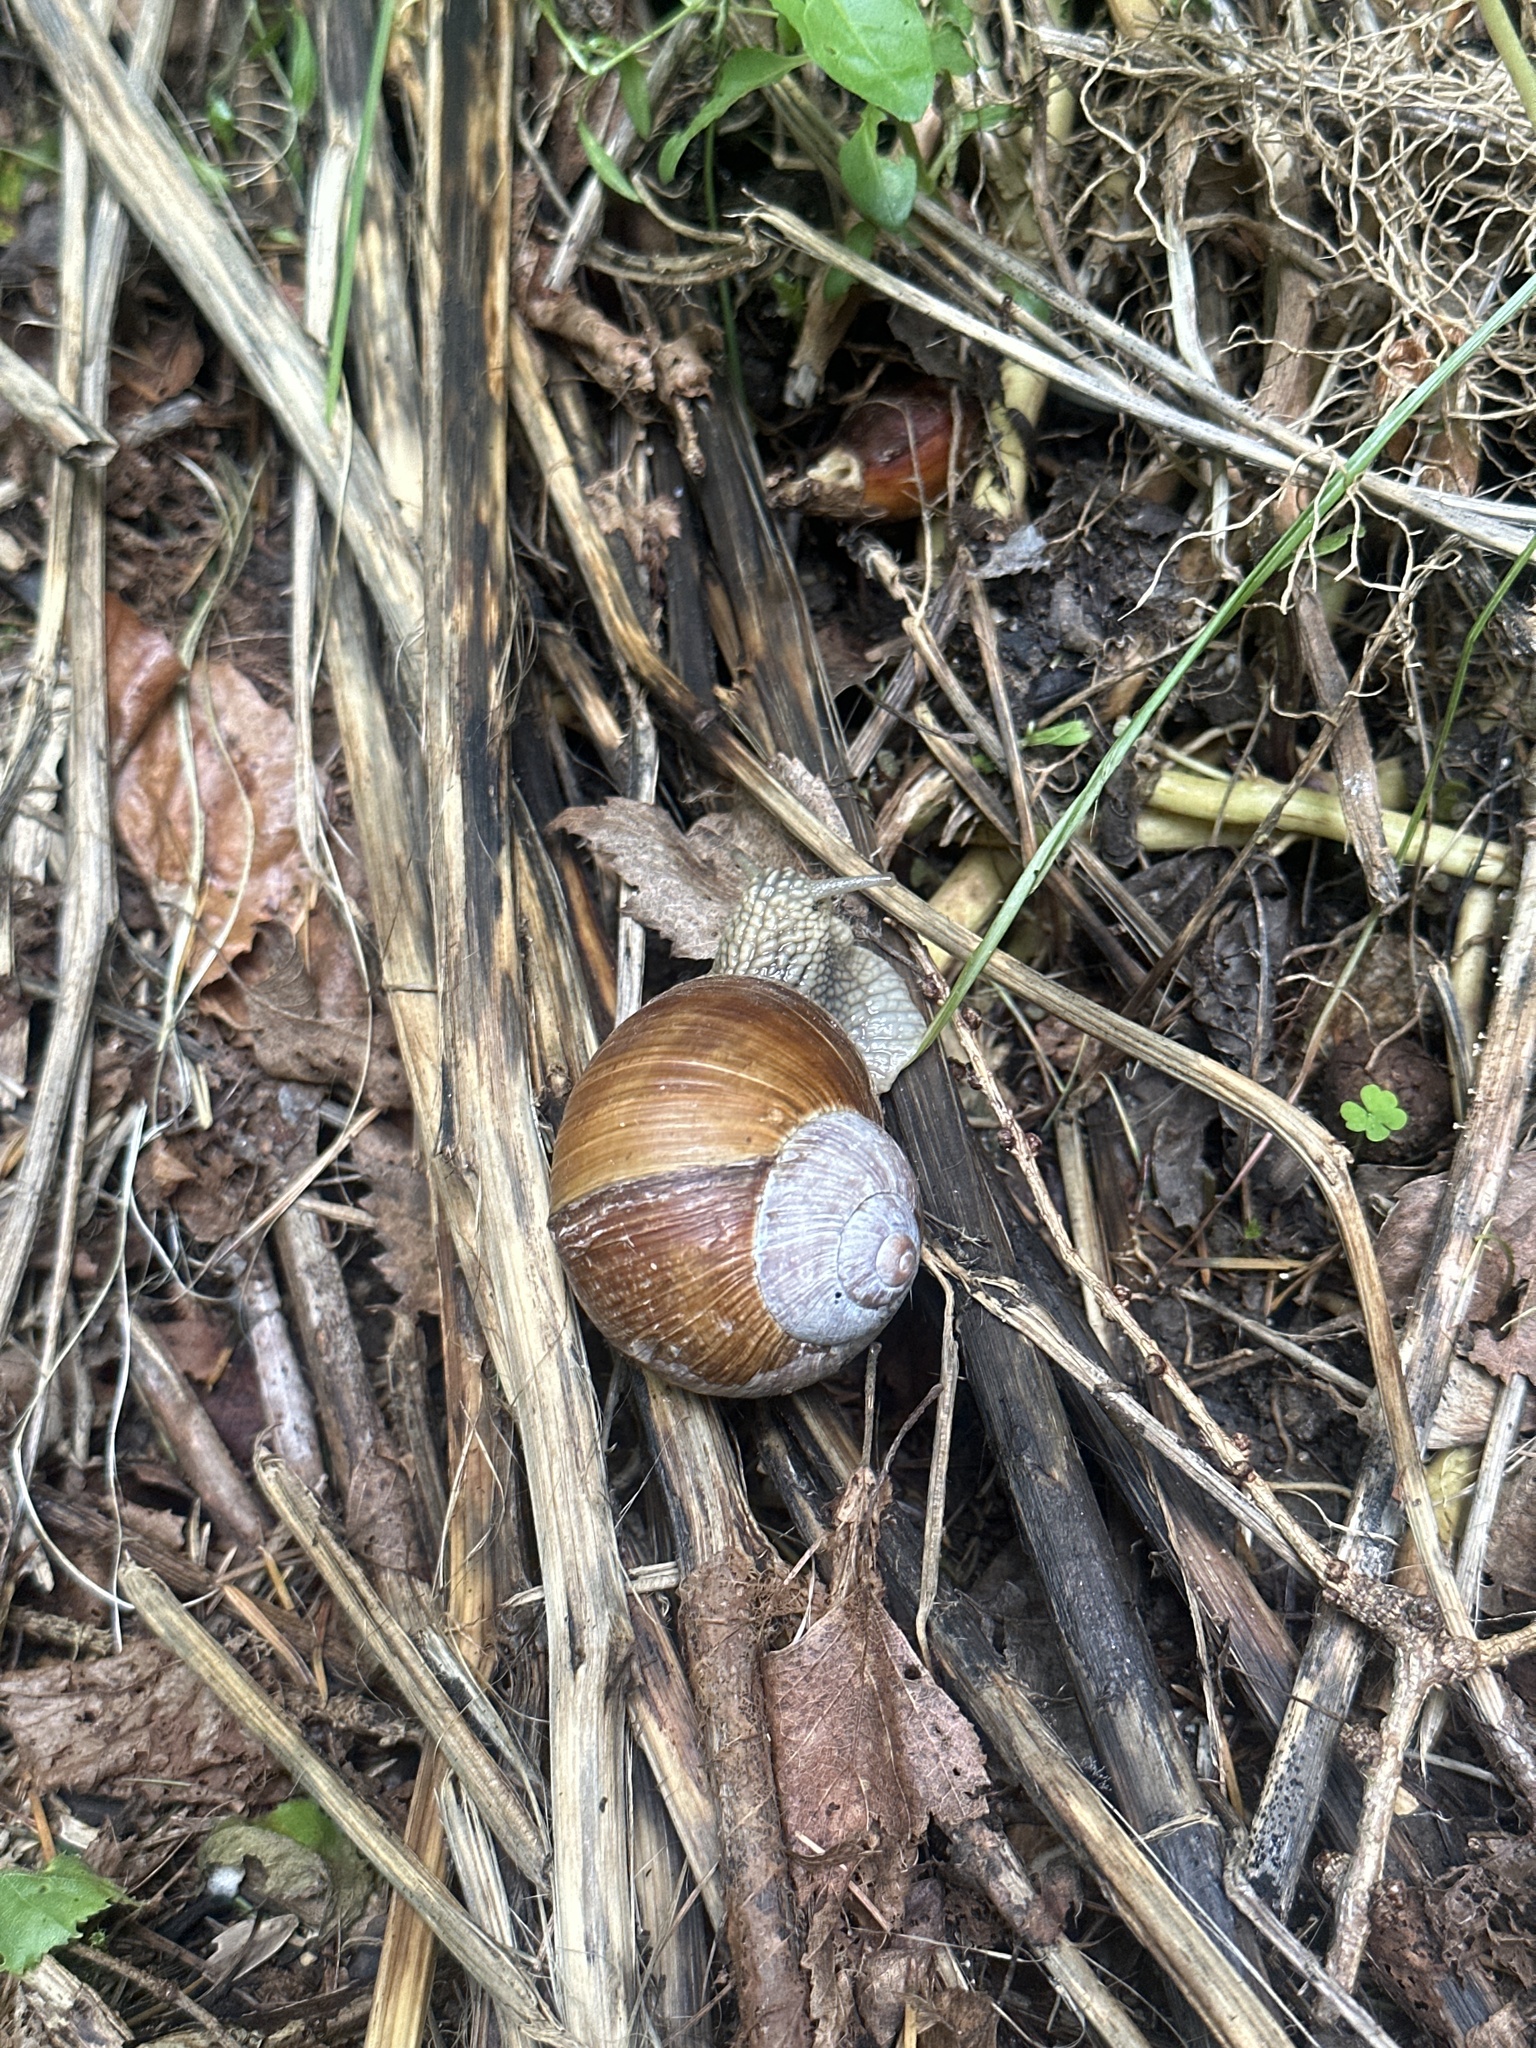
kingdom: Animalia
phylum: Mollusca
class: Gastropoda
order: Stylommatophora
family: Helicidae
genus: Helix
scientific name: Helix pomatia
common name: Roman snail
